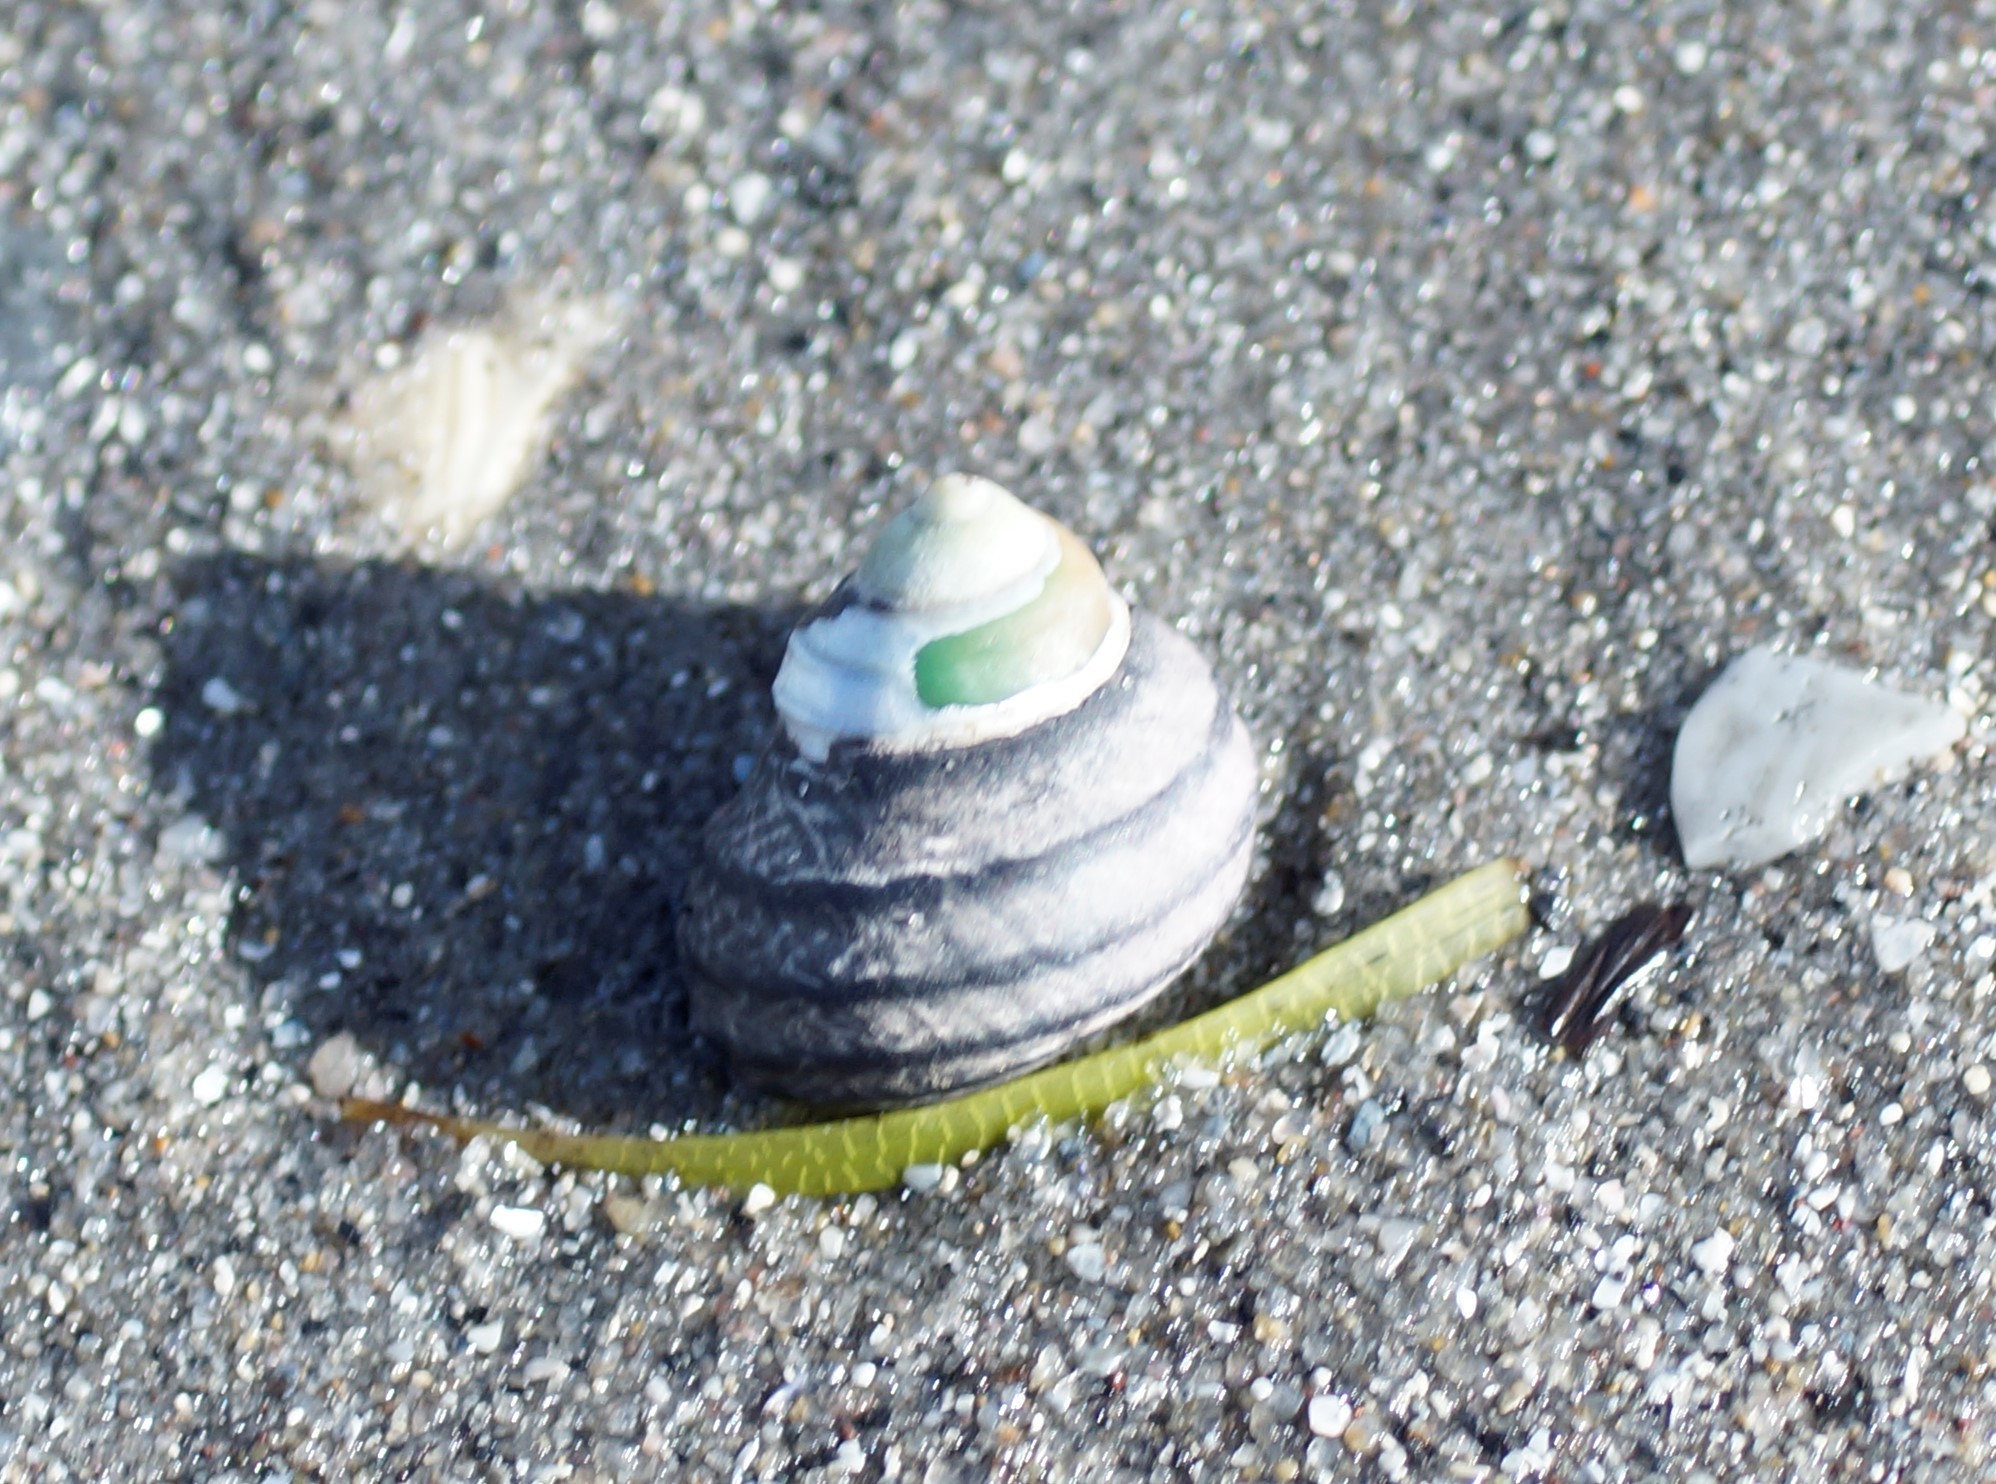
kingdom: Animalia
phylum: Mollusca
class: Gastropoda
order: Trochida
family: Trochidae
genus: Austrocochlea
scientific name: Austrocochlea constricta
